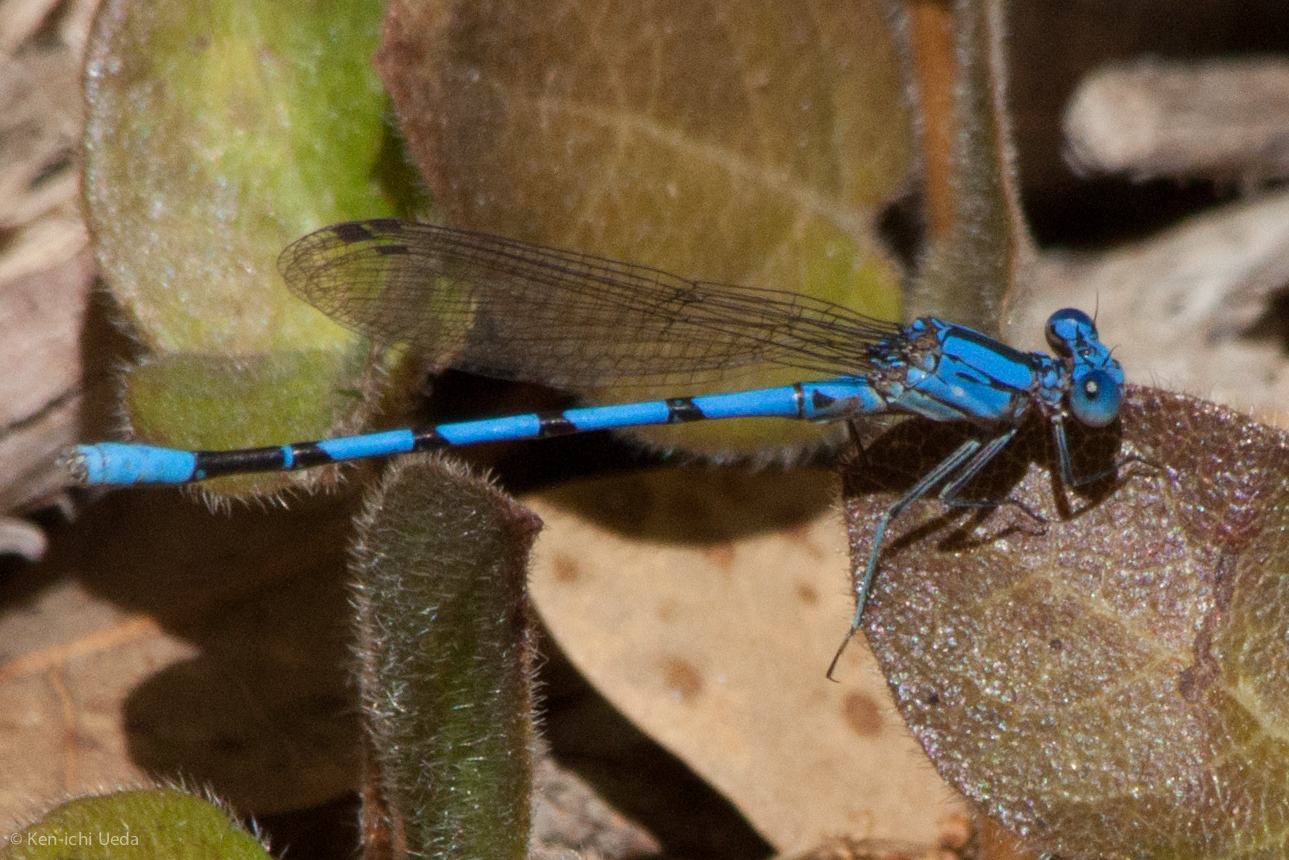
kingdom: Animalia
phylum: Arthropoda
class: Insecta
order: Odonata
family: Coenagrionidae
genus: Argia
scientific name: Argia agrioides
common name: California dancer
